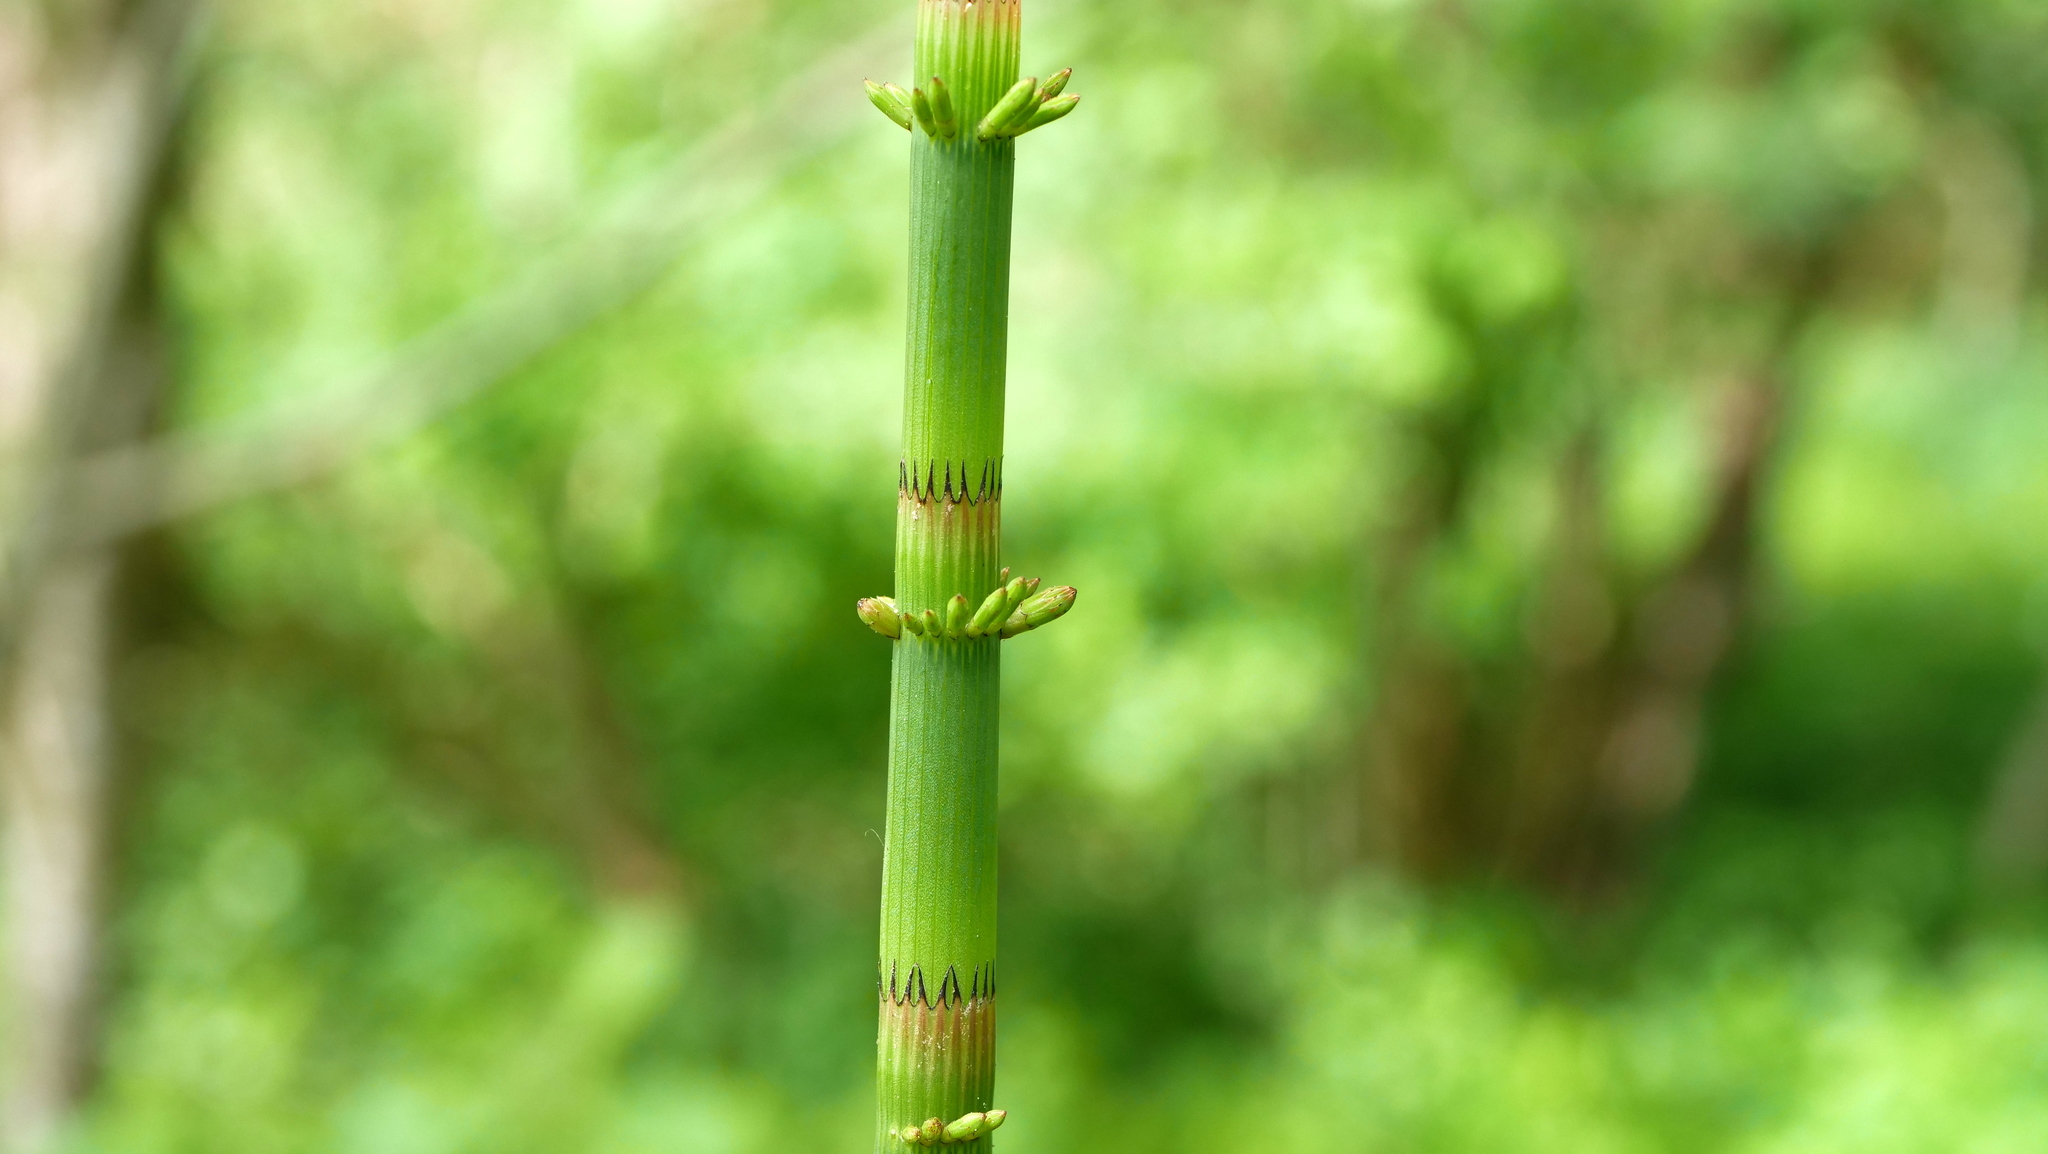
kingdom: Plantae
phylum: Tracheophyta
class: Polypodiopsida
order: Equisetales
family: Equisetaceae
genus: Equisetum
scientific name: Equisetum fluviatile
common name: Water horsetail
